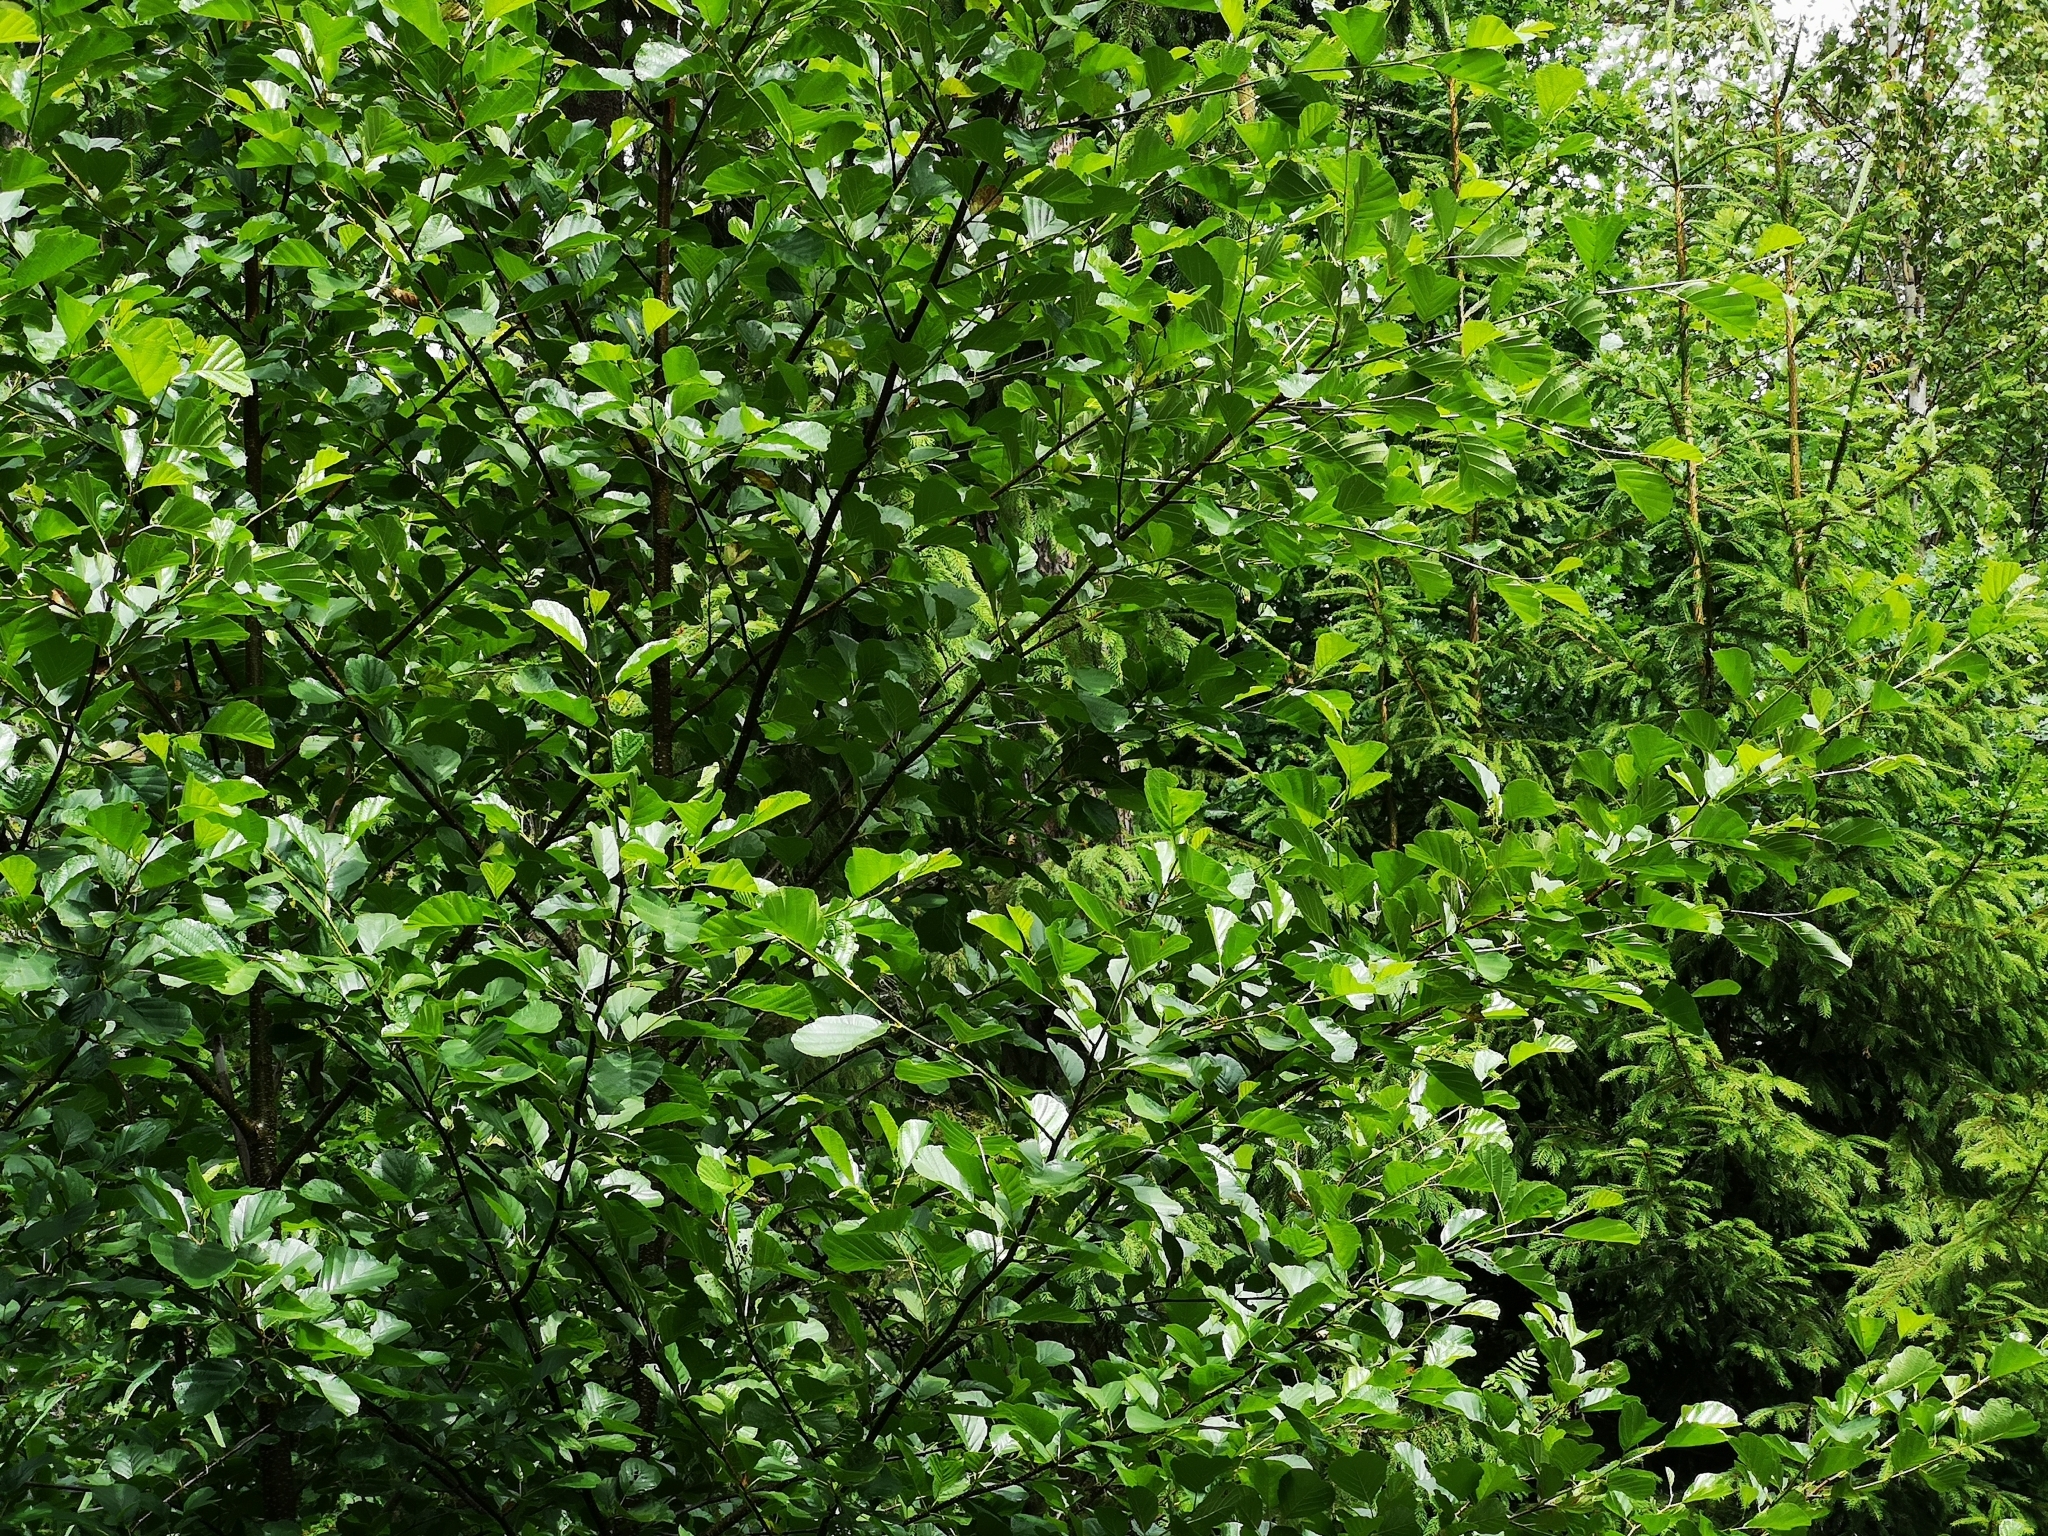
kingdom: Plantae
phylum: Tracheophyta
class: Magnoliopsida
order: Fagales
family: Betulaceae
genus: Alnus
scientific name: Alnus glutinosa
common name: Black alder
